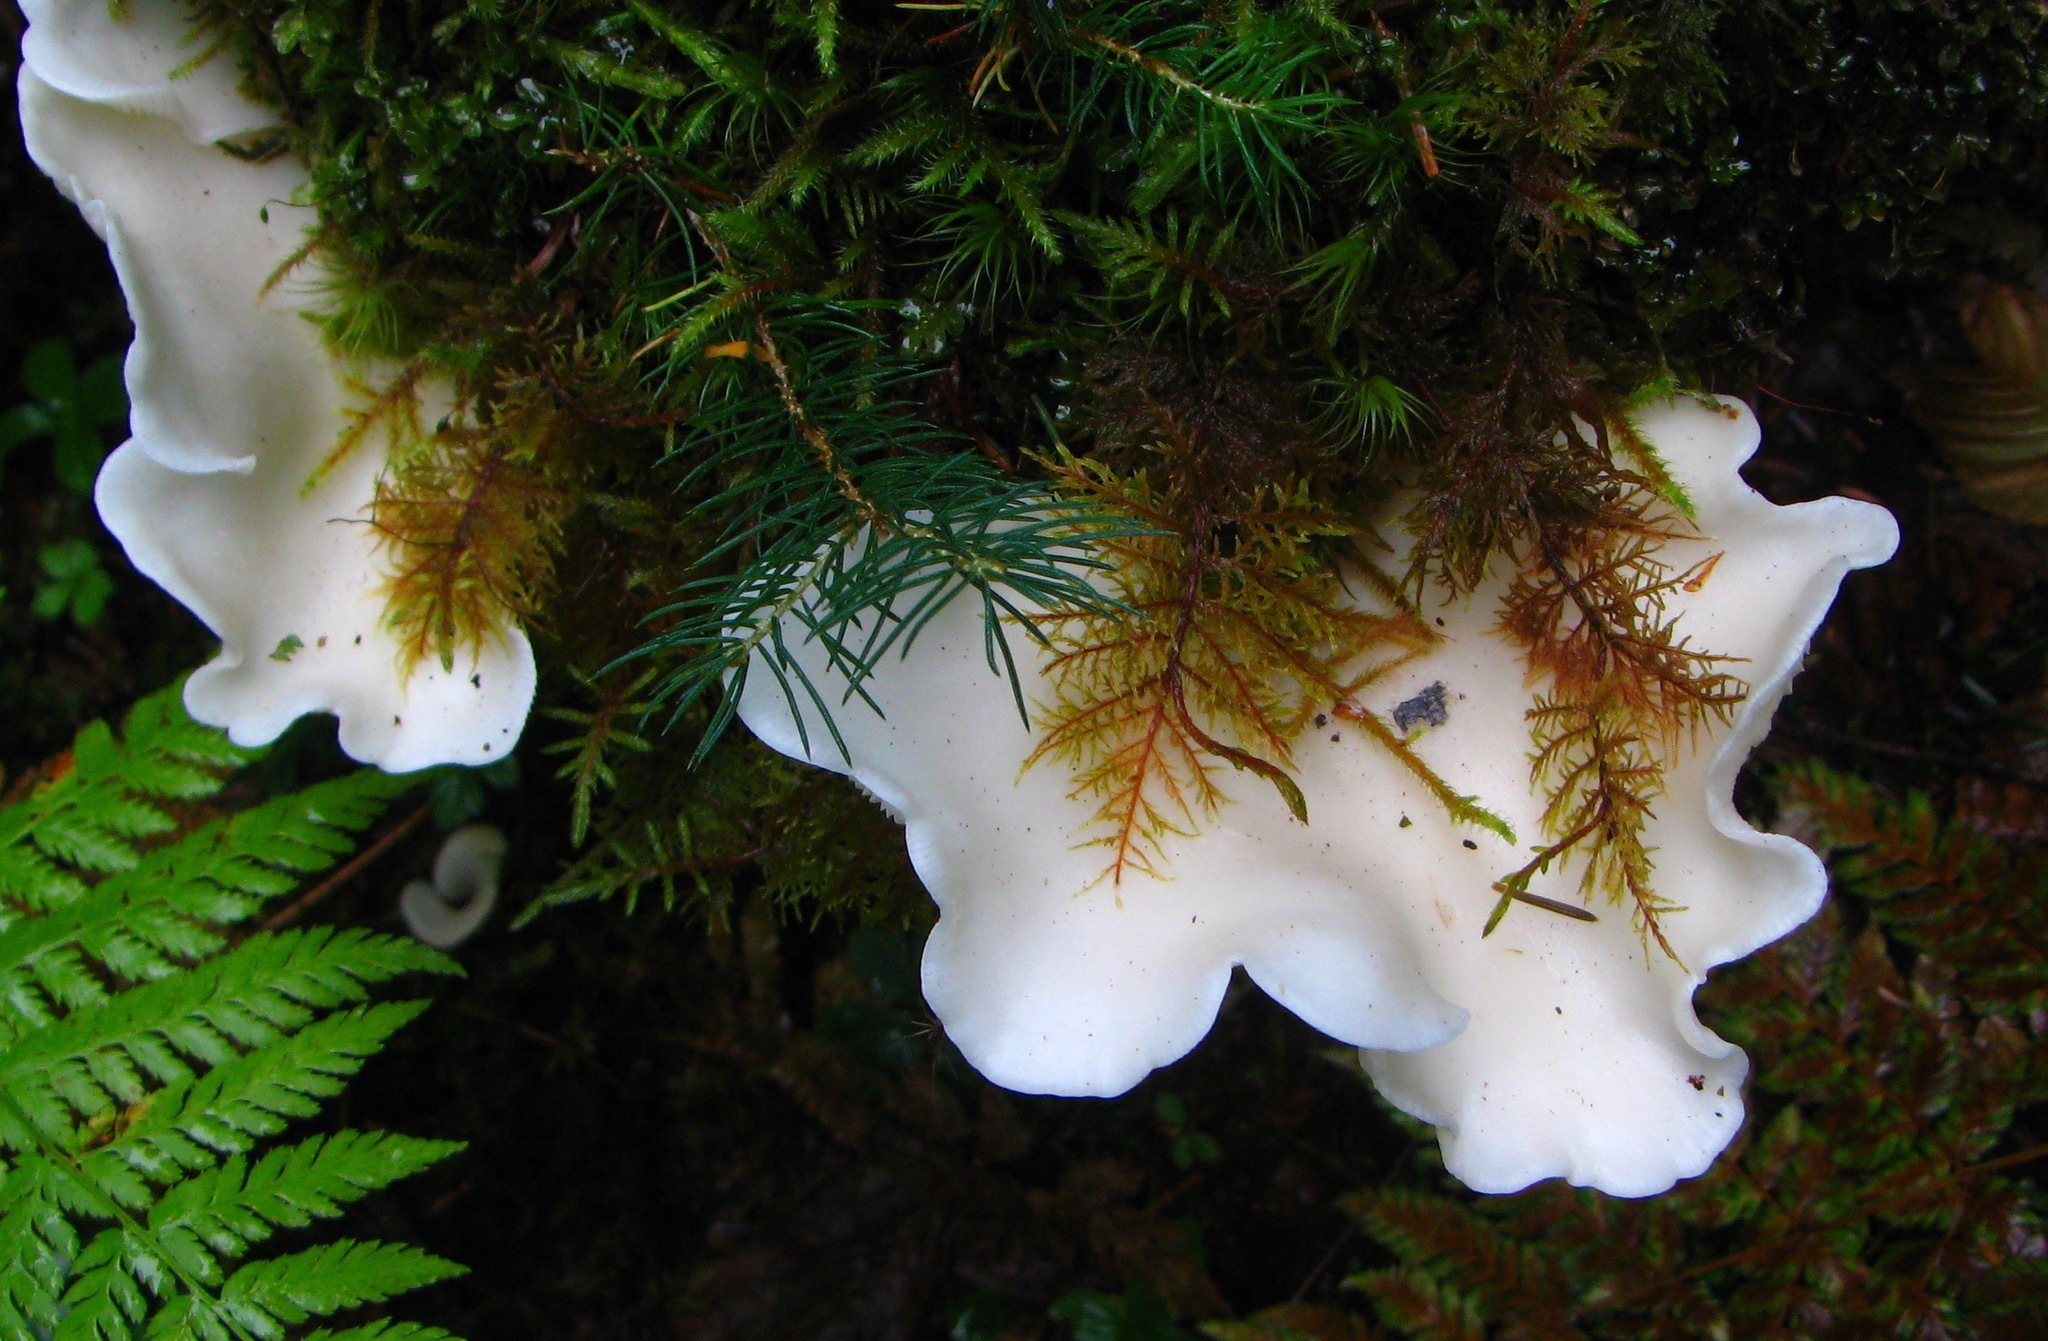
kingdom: Fungi
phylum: Basidiomycota
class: Agaricomycetes
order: Agaricales
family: Marasmiaceae
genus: Pleurocybella
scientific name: Pleurocybella porrigens
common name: Angel's wings
